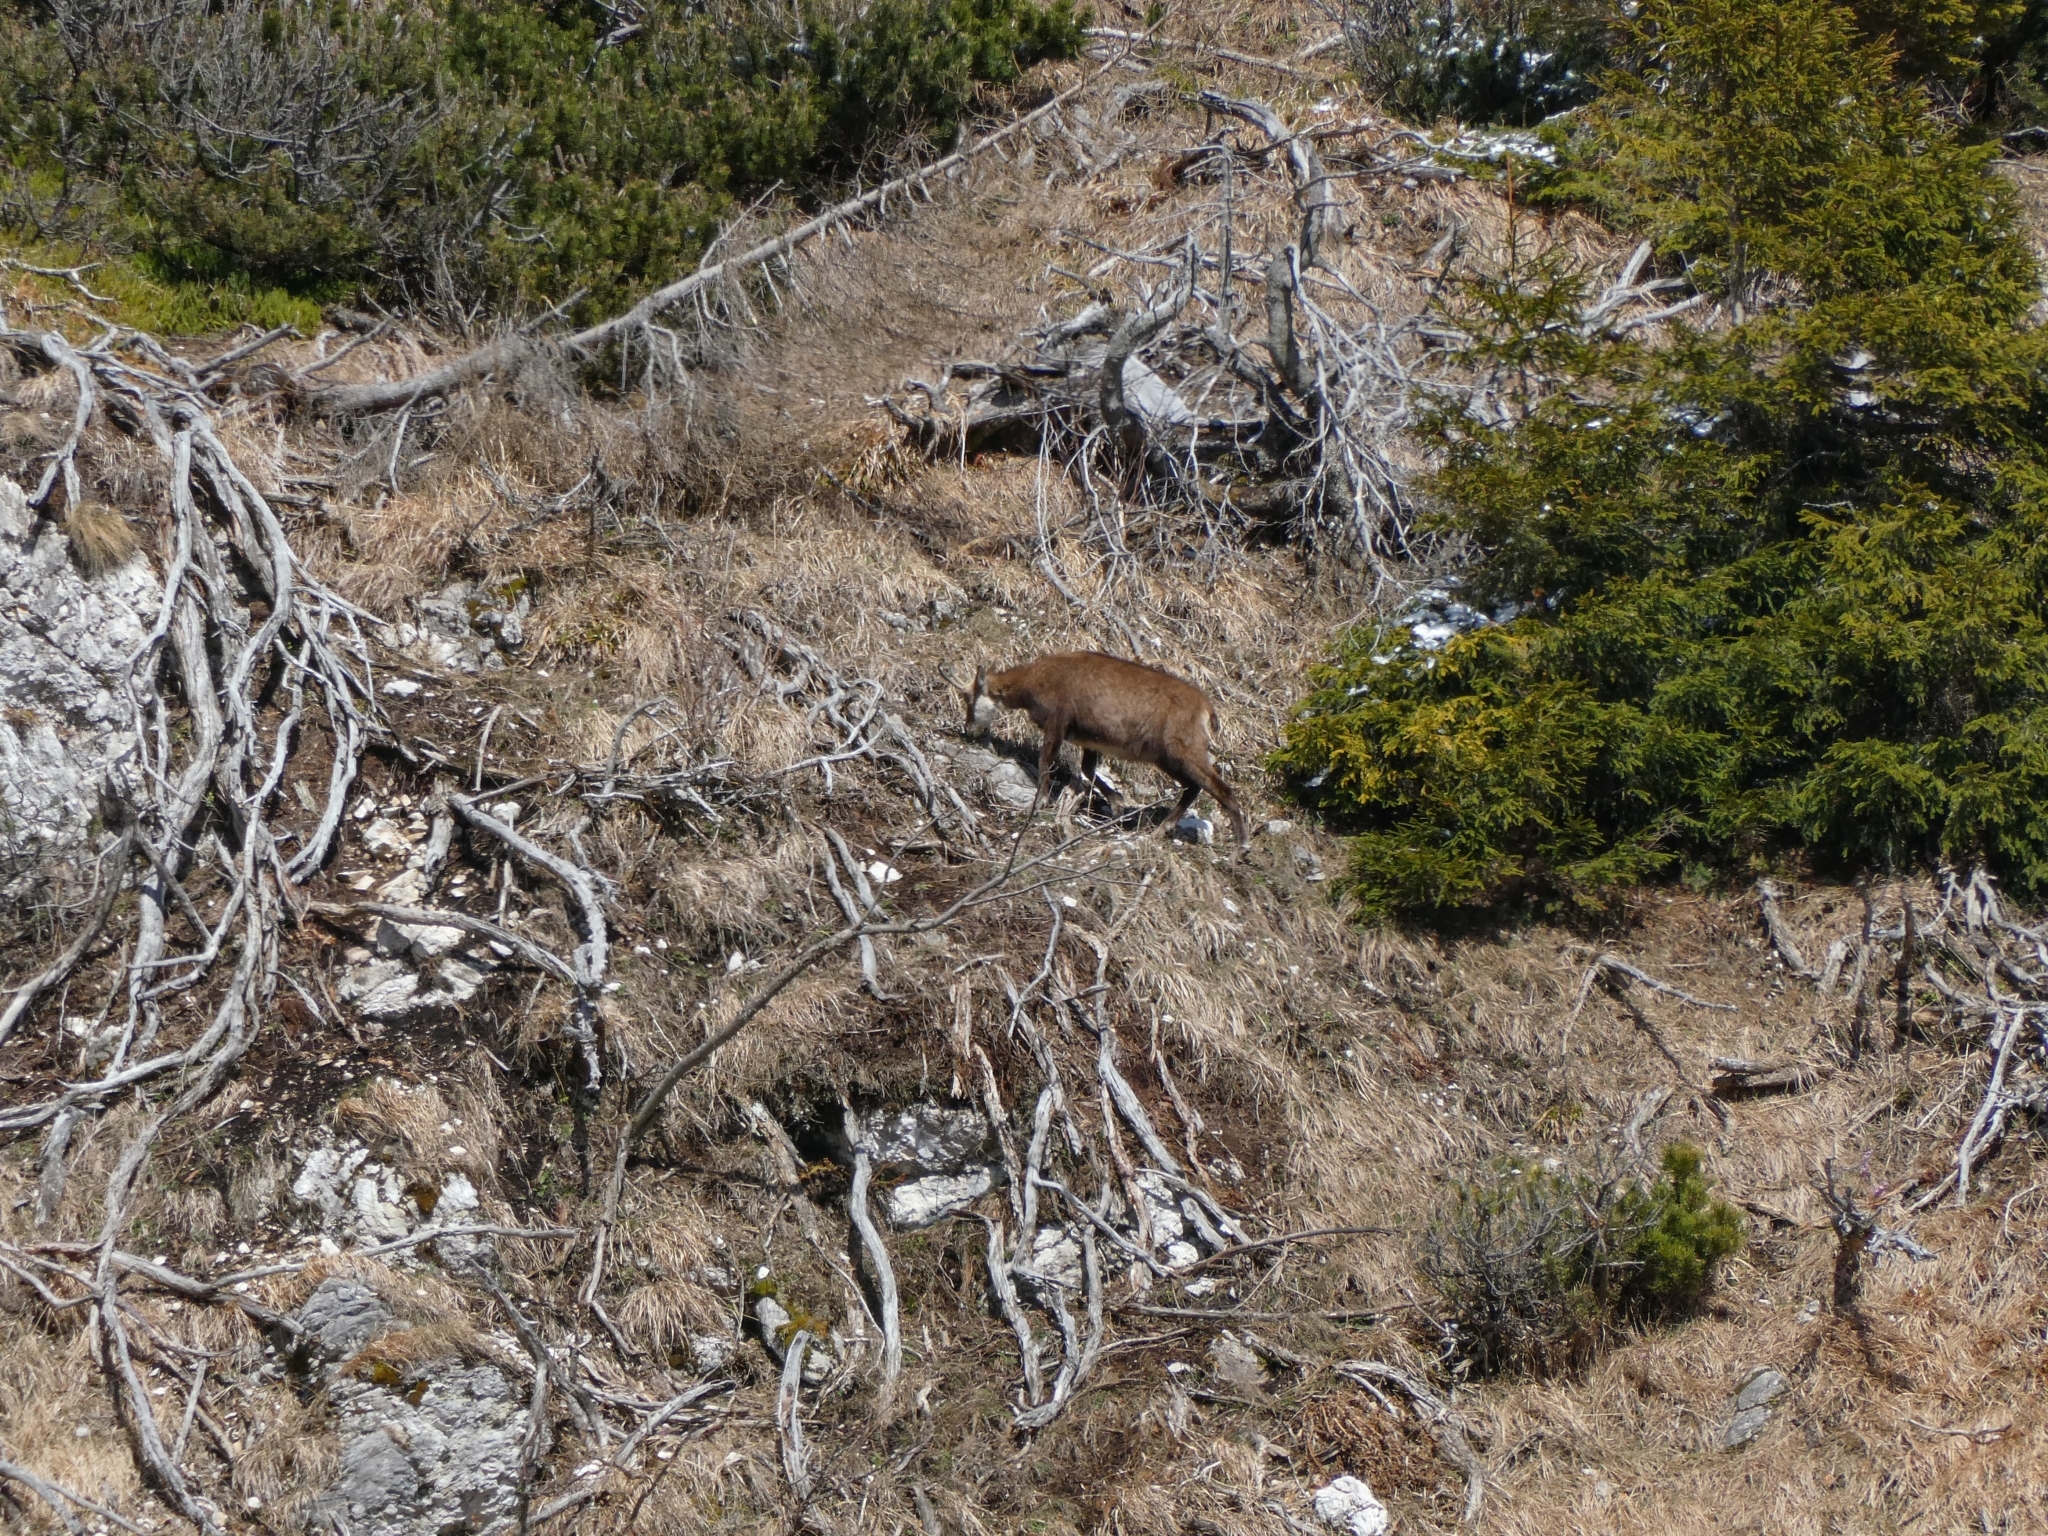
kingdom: Animalia
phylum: Chordata
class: Mammalia
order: Artiodactyla
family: Bovidae
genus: Rupicapra
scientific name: Rupicapra rupicapra
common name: Chamois
